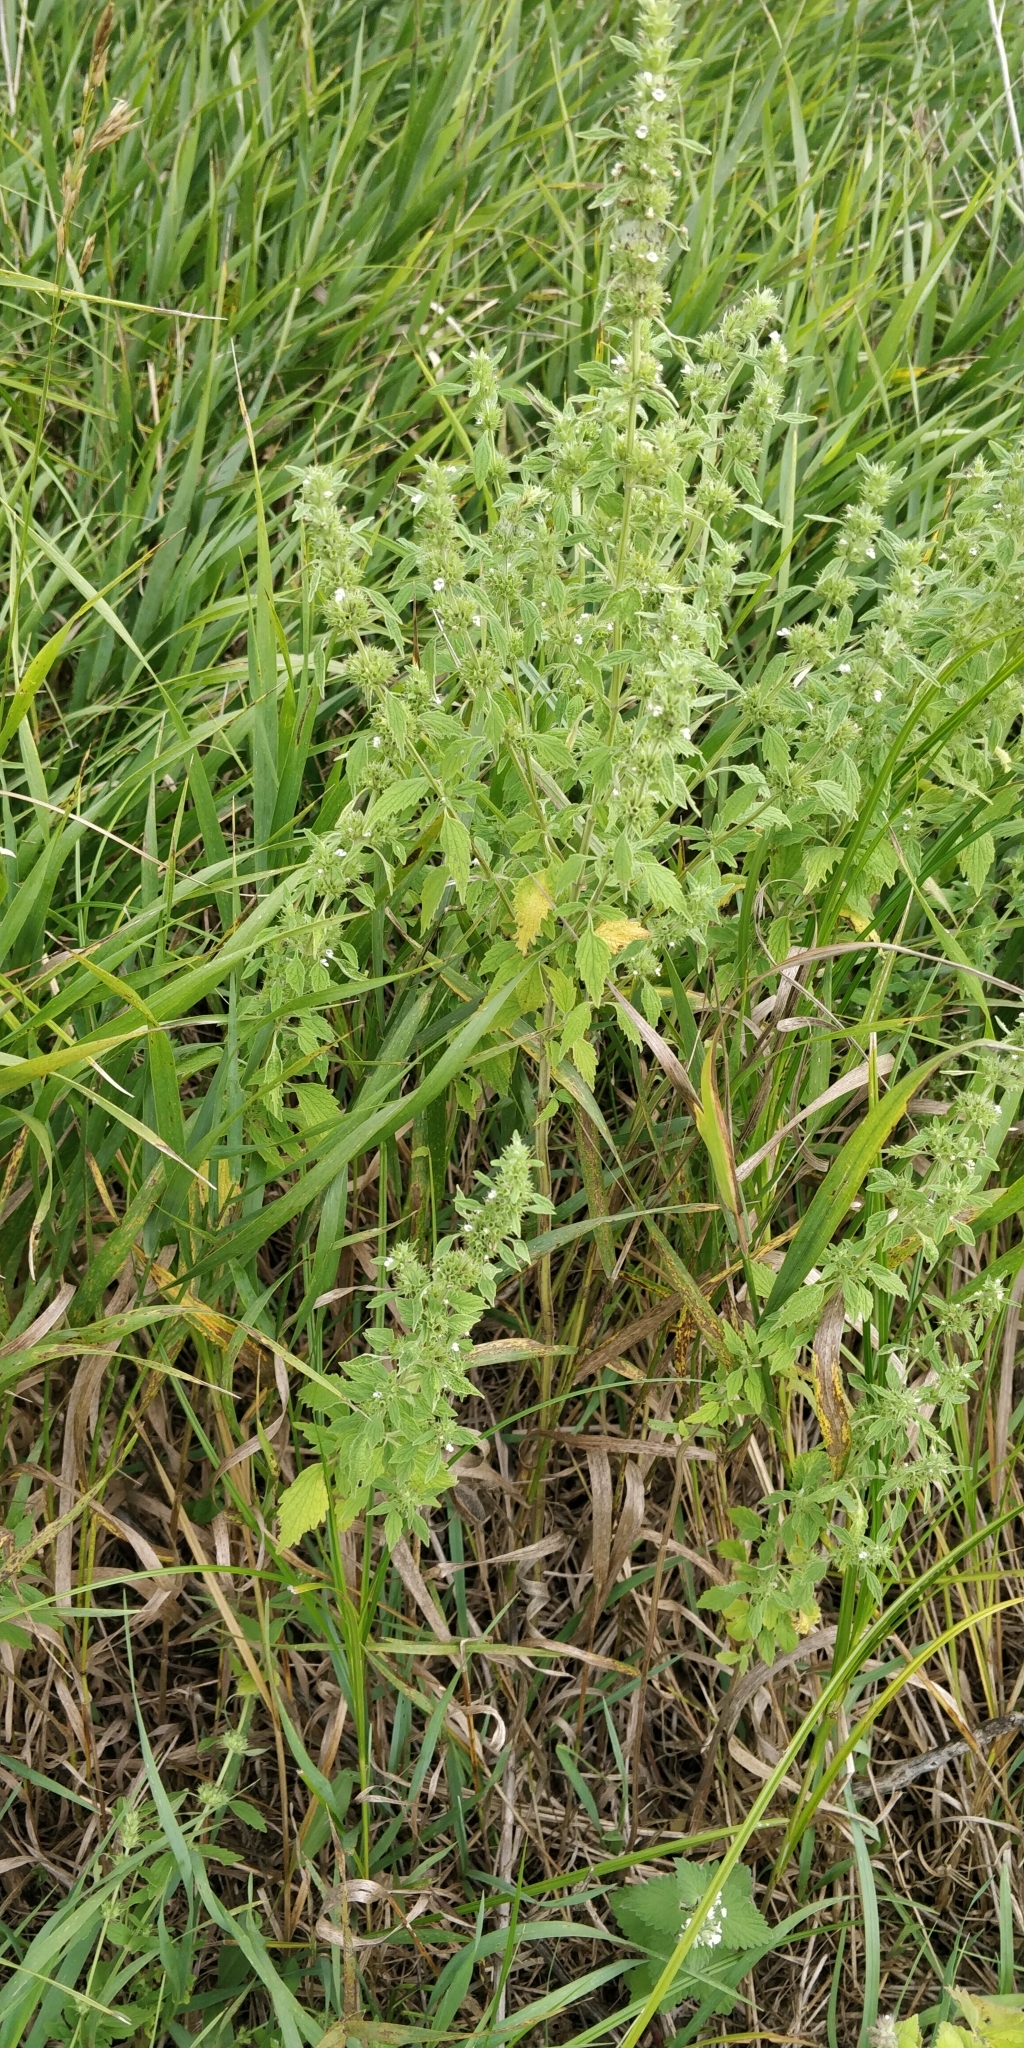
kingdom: Plantae
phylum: Tracheophyta
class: Magnoliopsida
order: Lamiales
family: Lamiaceae
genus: Chaiturus
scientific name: Chaiturus marrubiastrum
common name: Lion's tail
